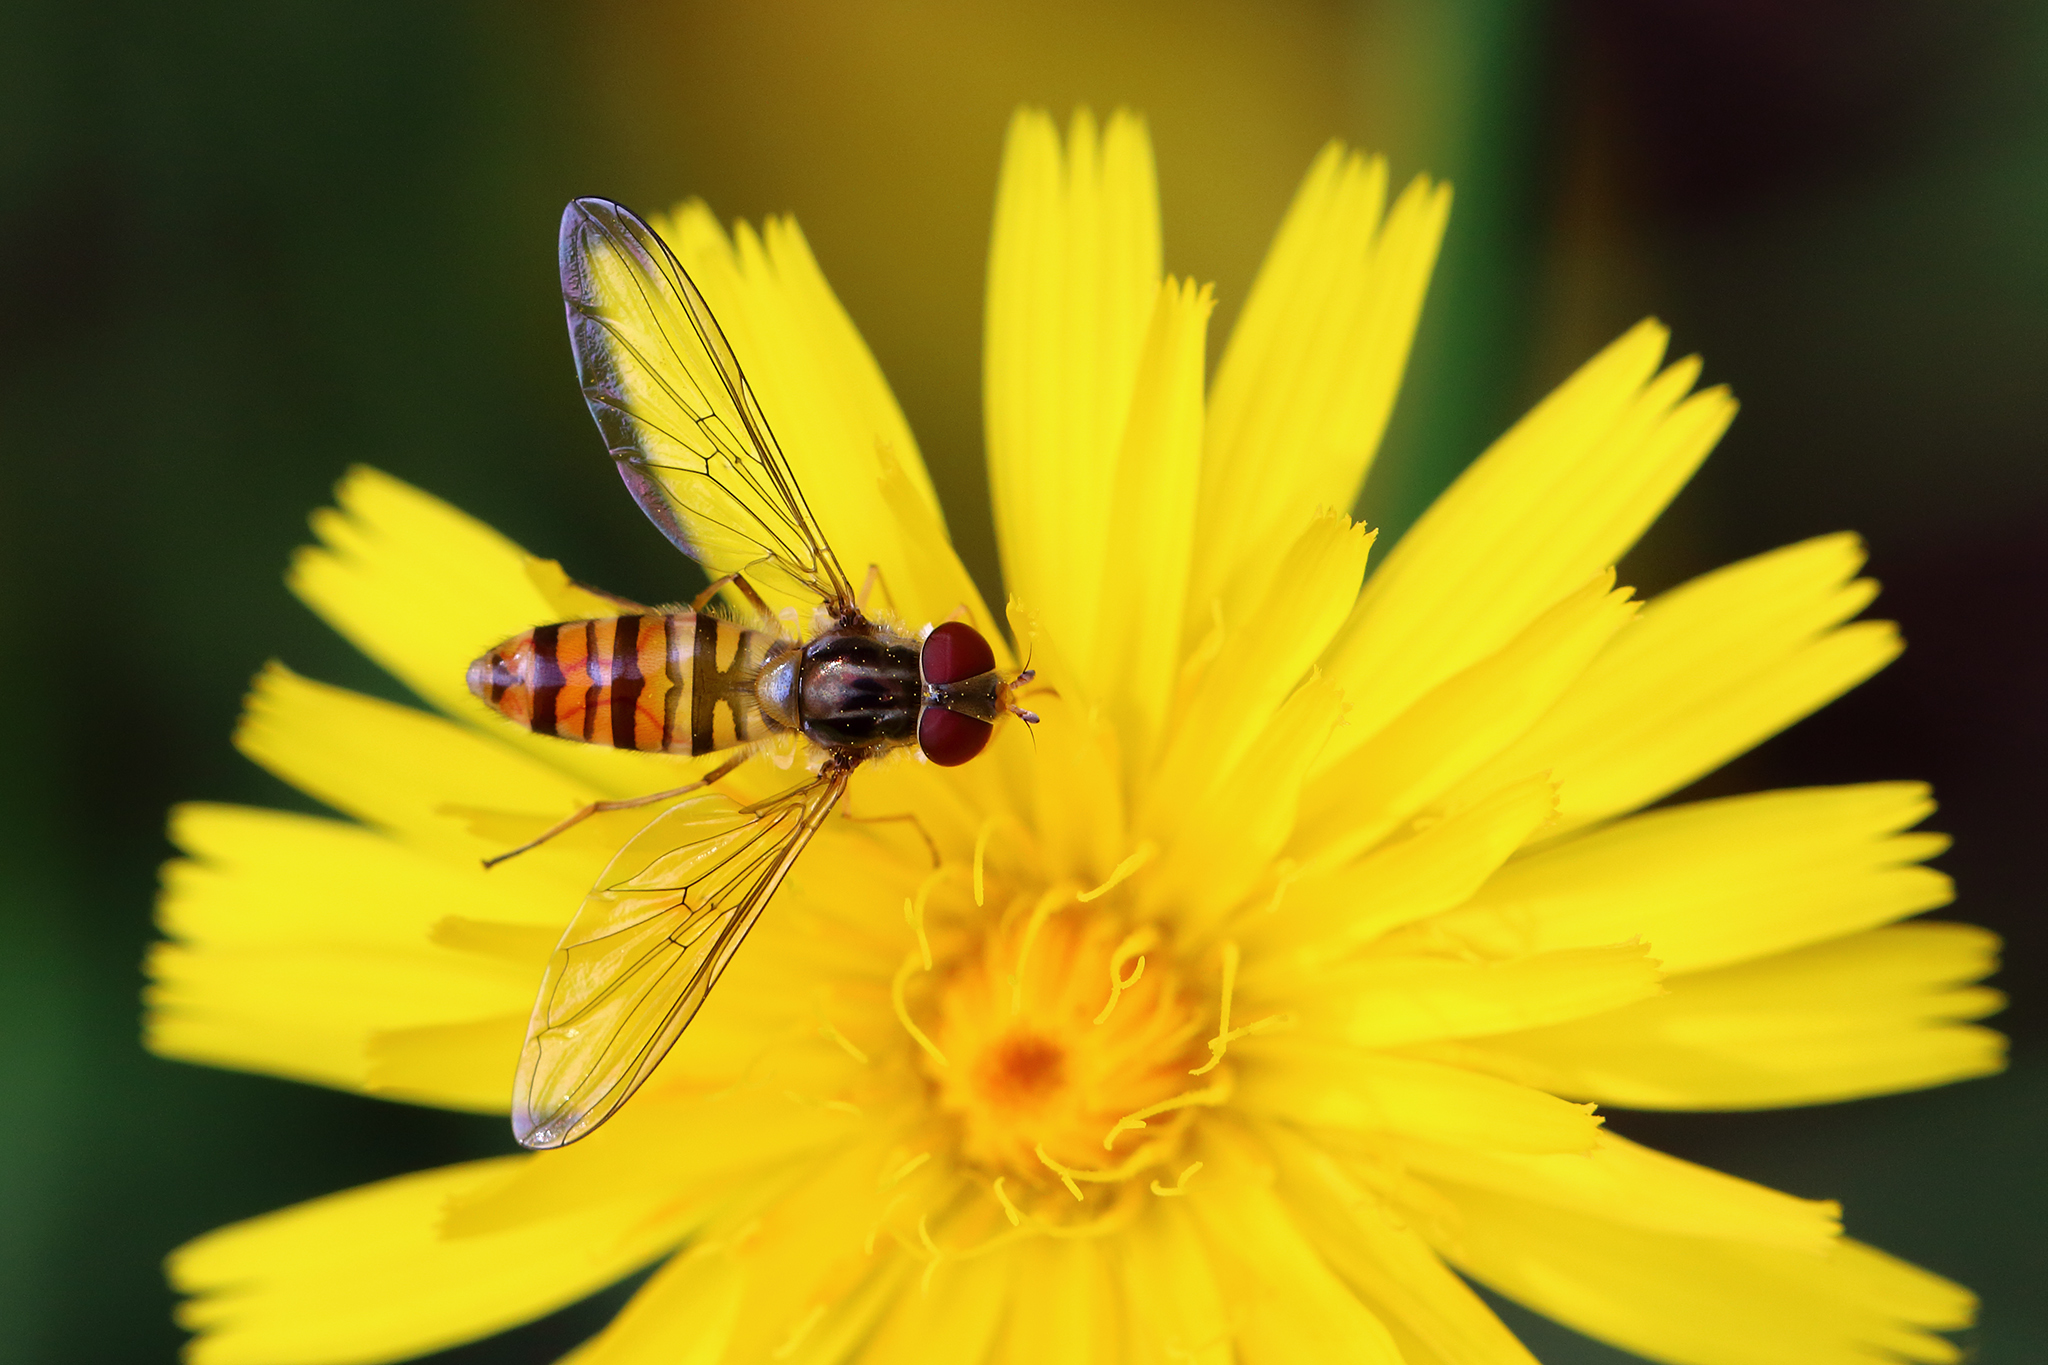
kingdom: Animalia
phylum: Arthropoda
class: Insecta
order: Diptera
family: Syrphidae
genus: Episyrphus
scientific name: Episyrphus balteatus
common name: Marmalade hoverfly
